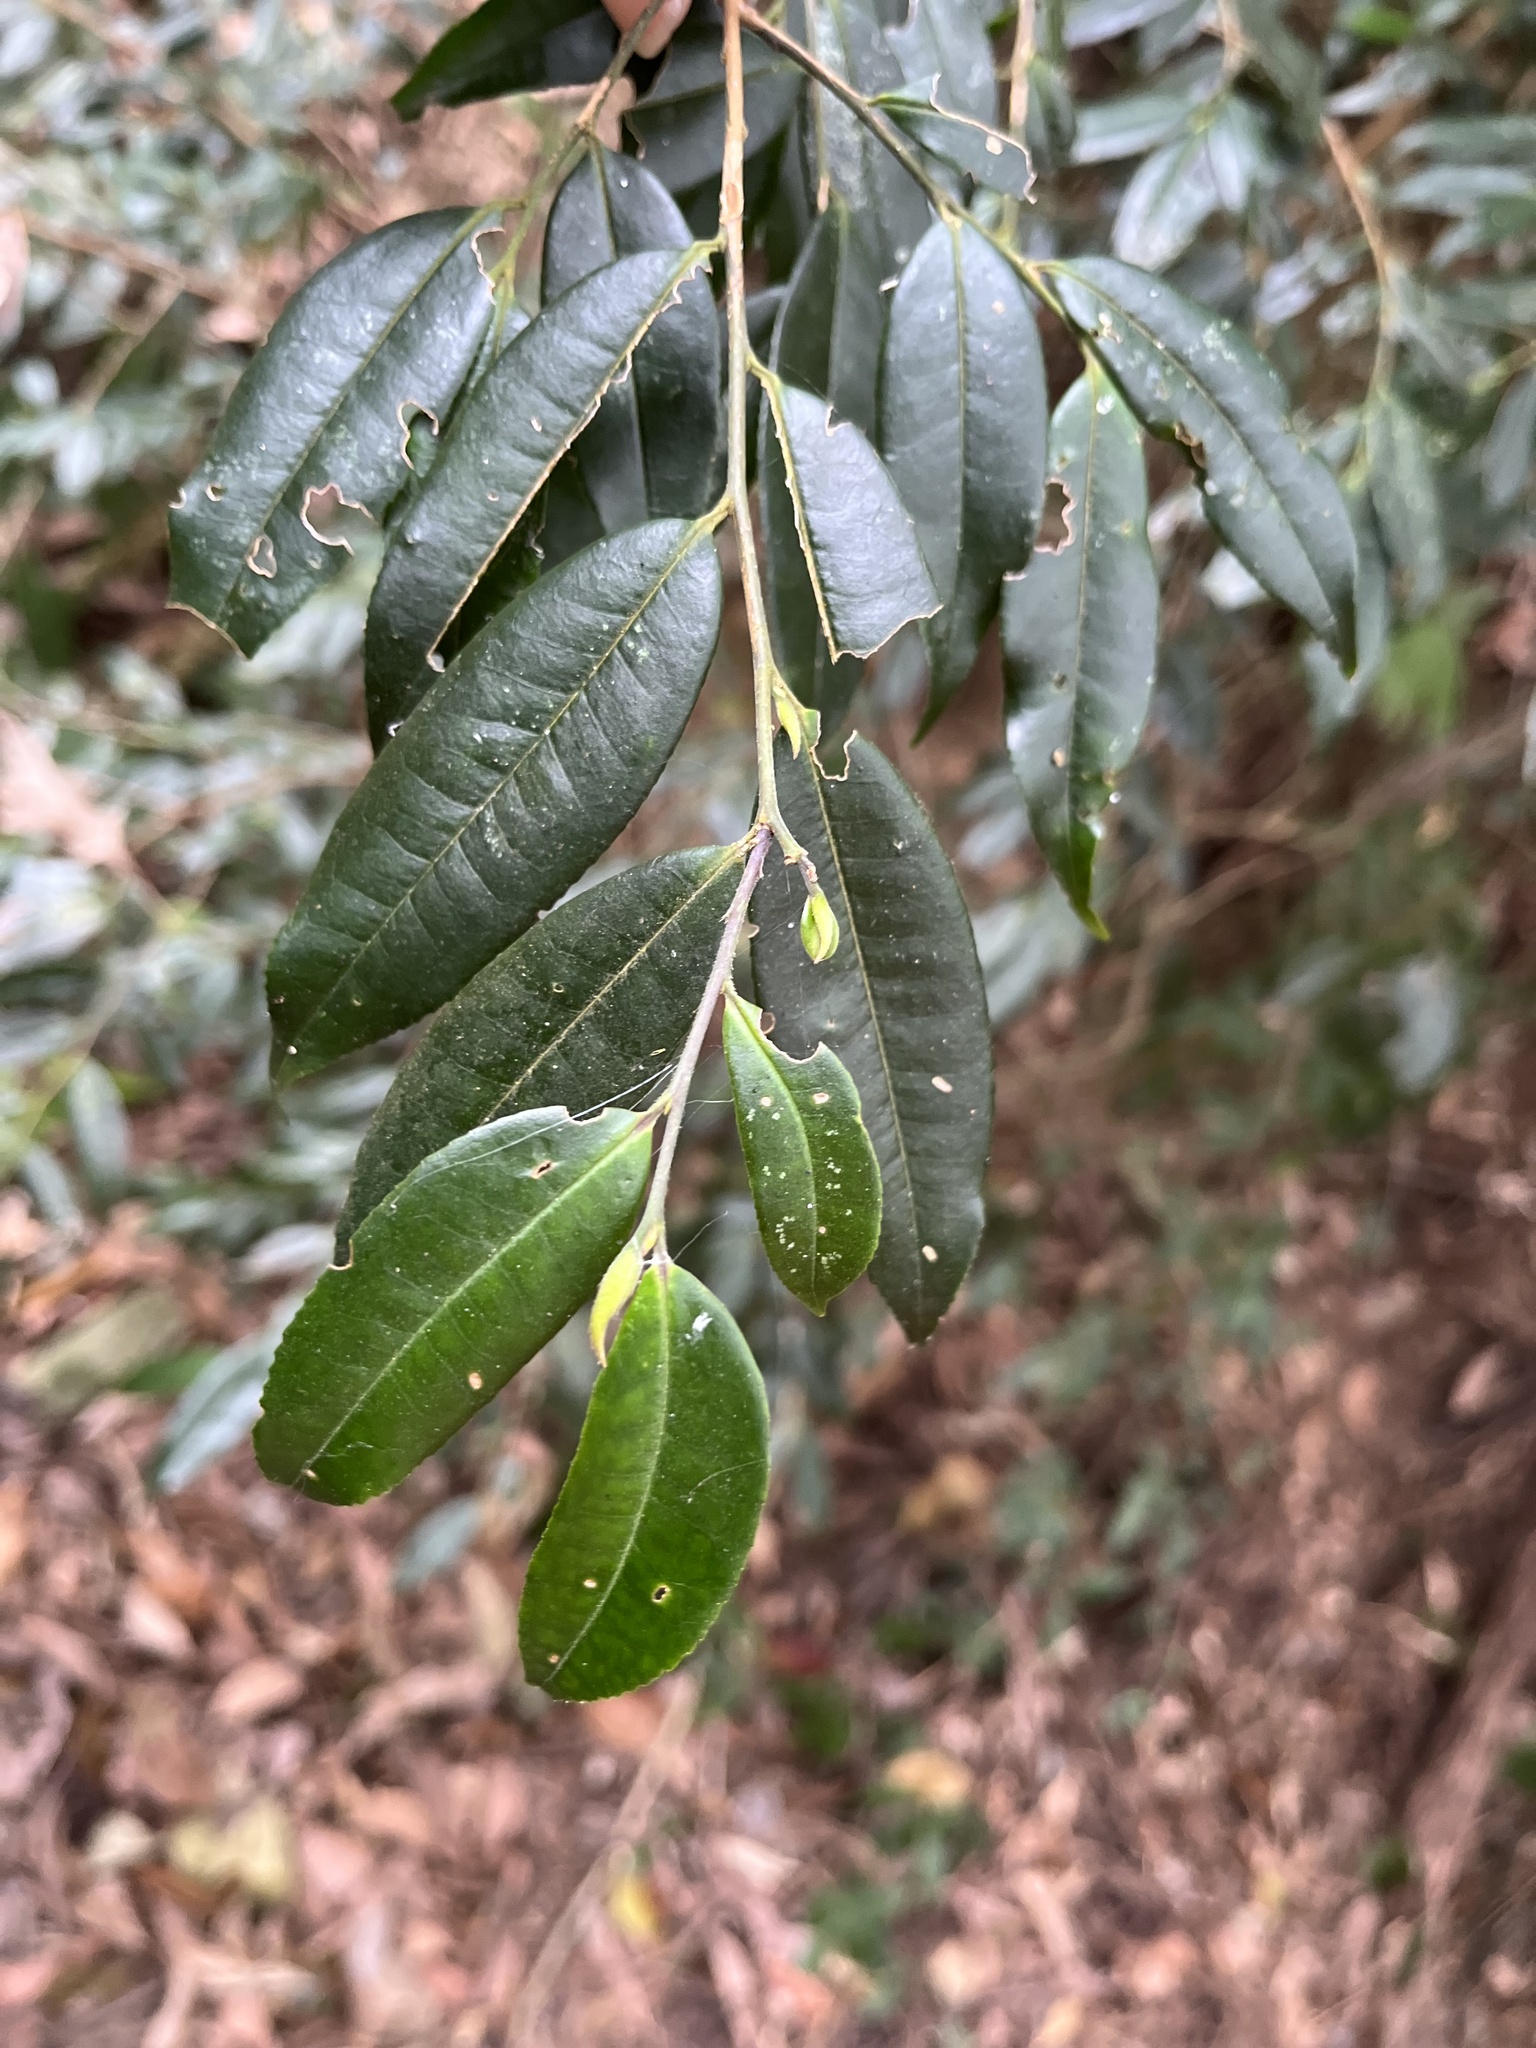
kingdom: Plantae
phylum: Tracheophyta
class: Magnoliopsida
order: Ericales
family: Pentaphylacaceae
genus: Eurya
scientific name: Eurya loquaiana
